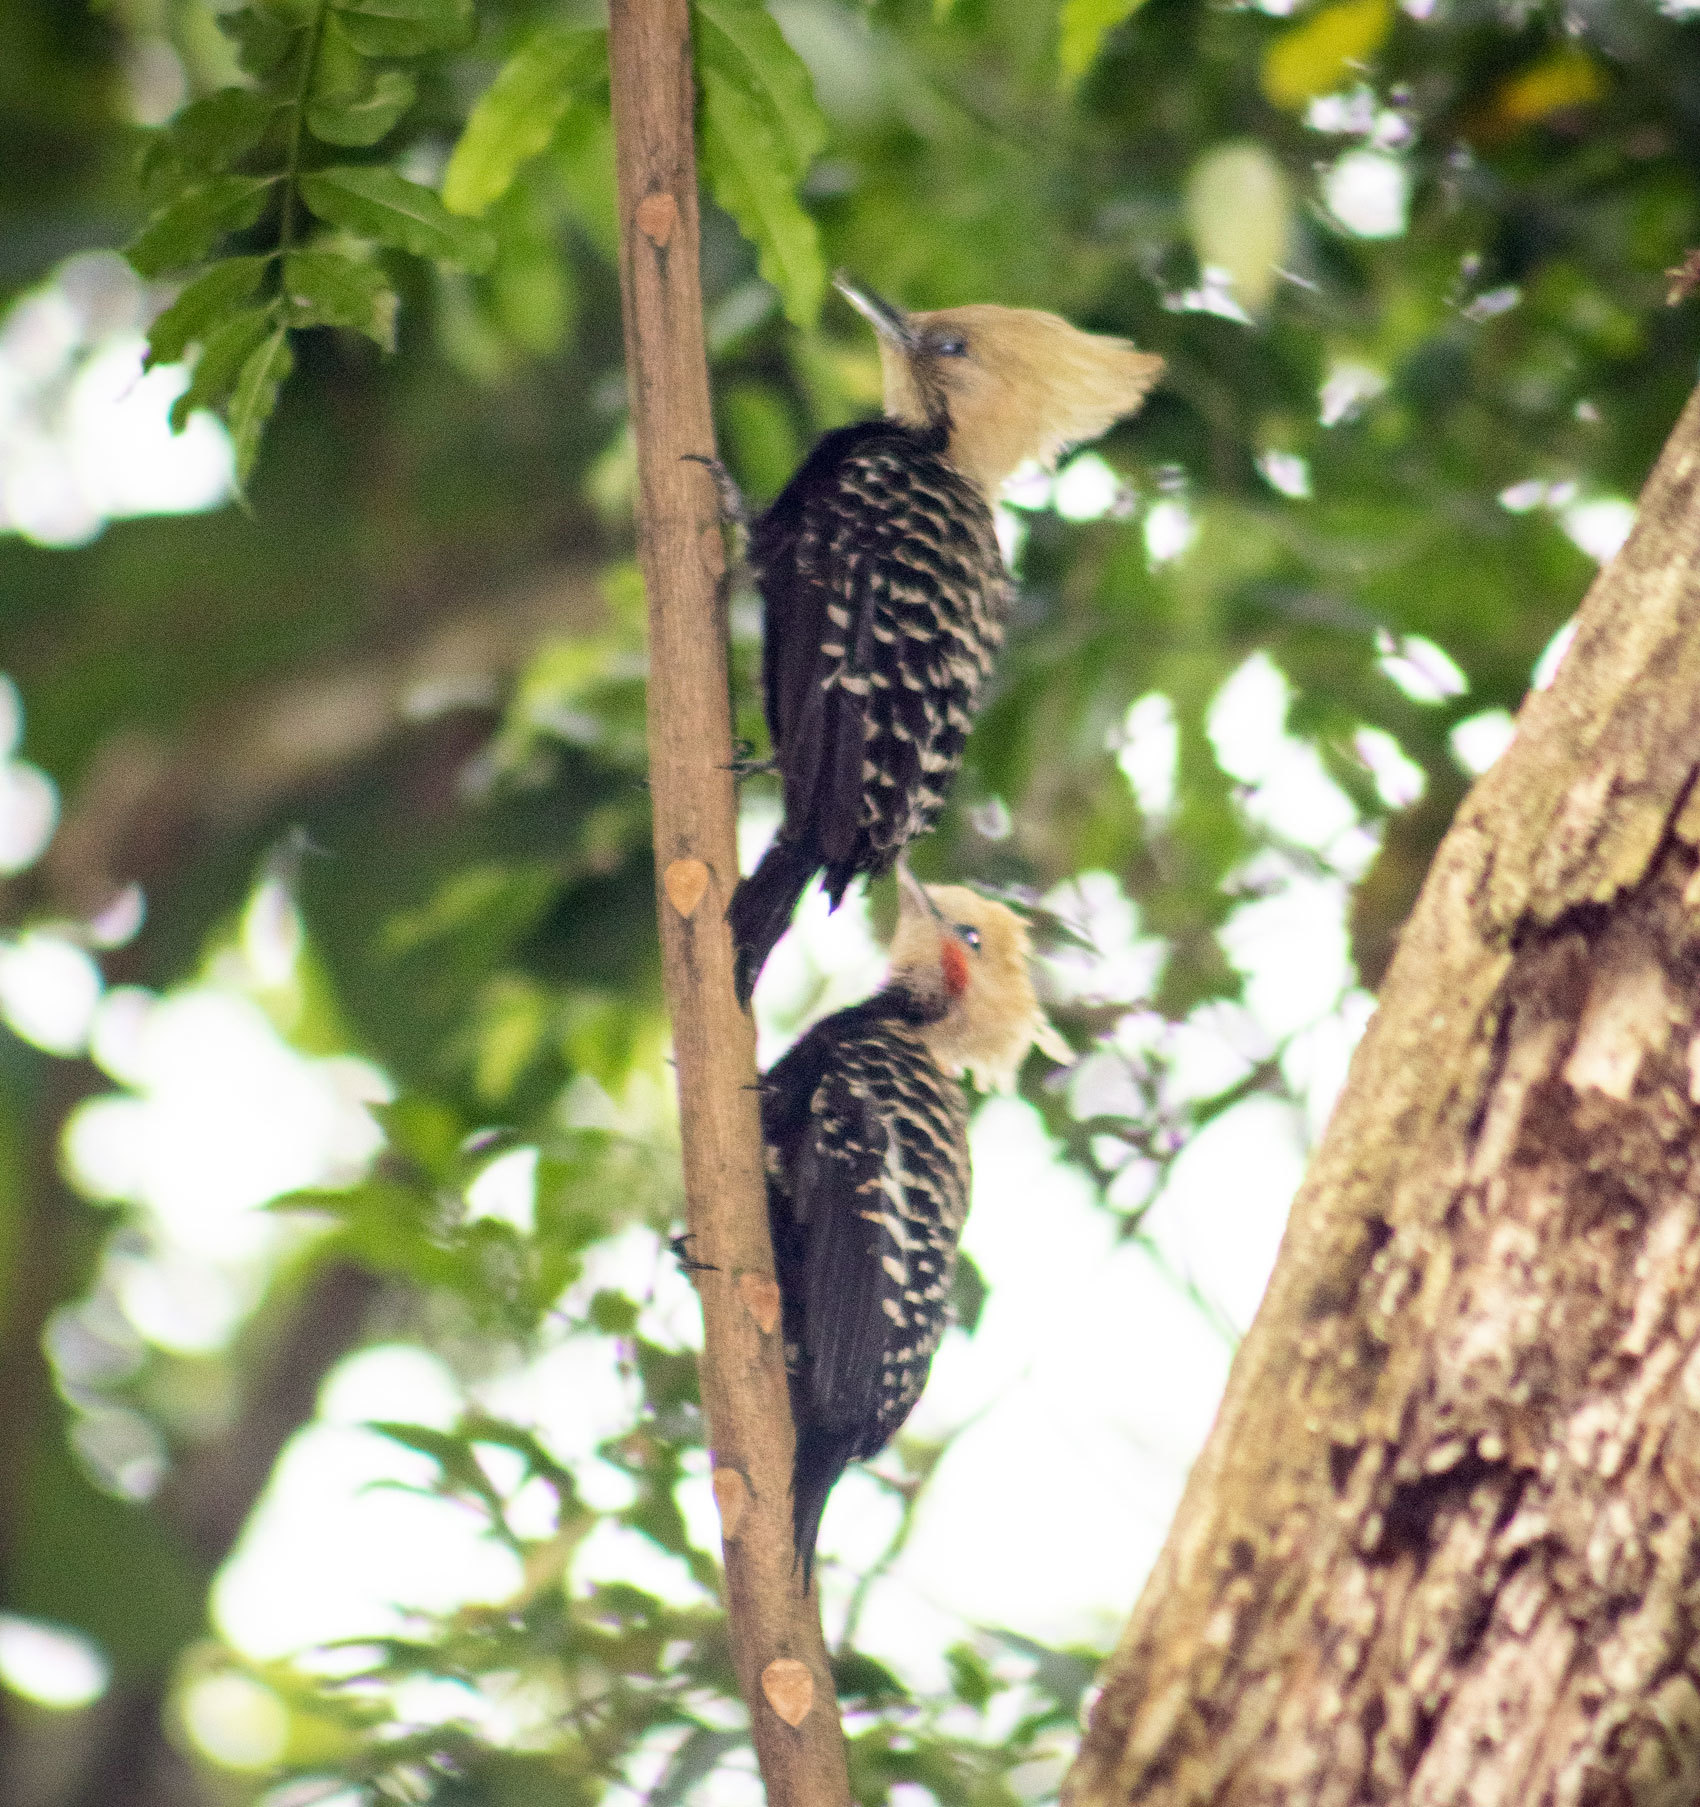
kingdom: Animalia
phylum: Chordata
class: Aves
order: Piciformes
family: Picidae
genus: Celeus
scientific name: Celeus flavescens
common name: Blond-crested woodpecker
